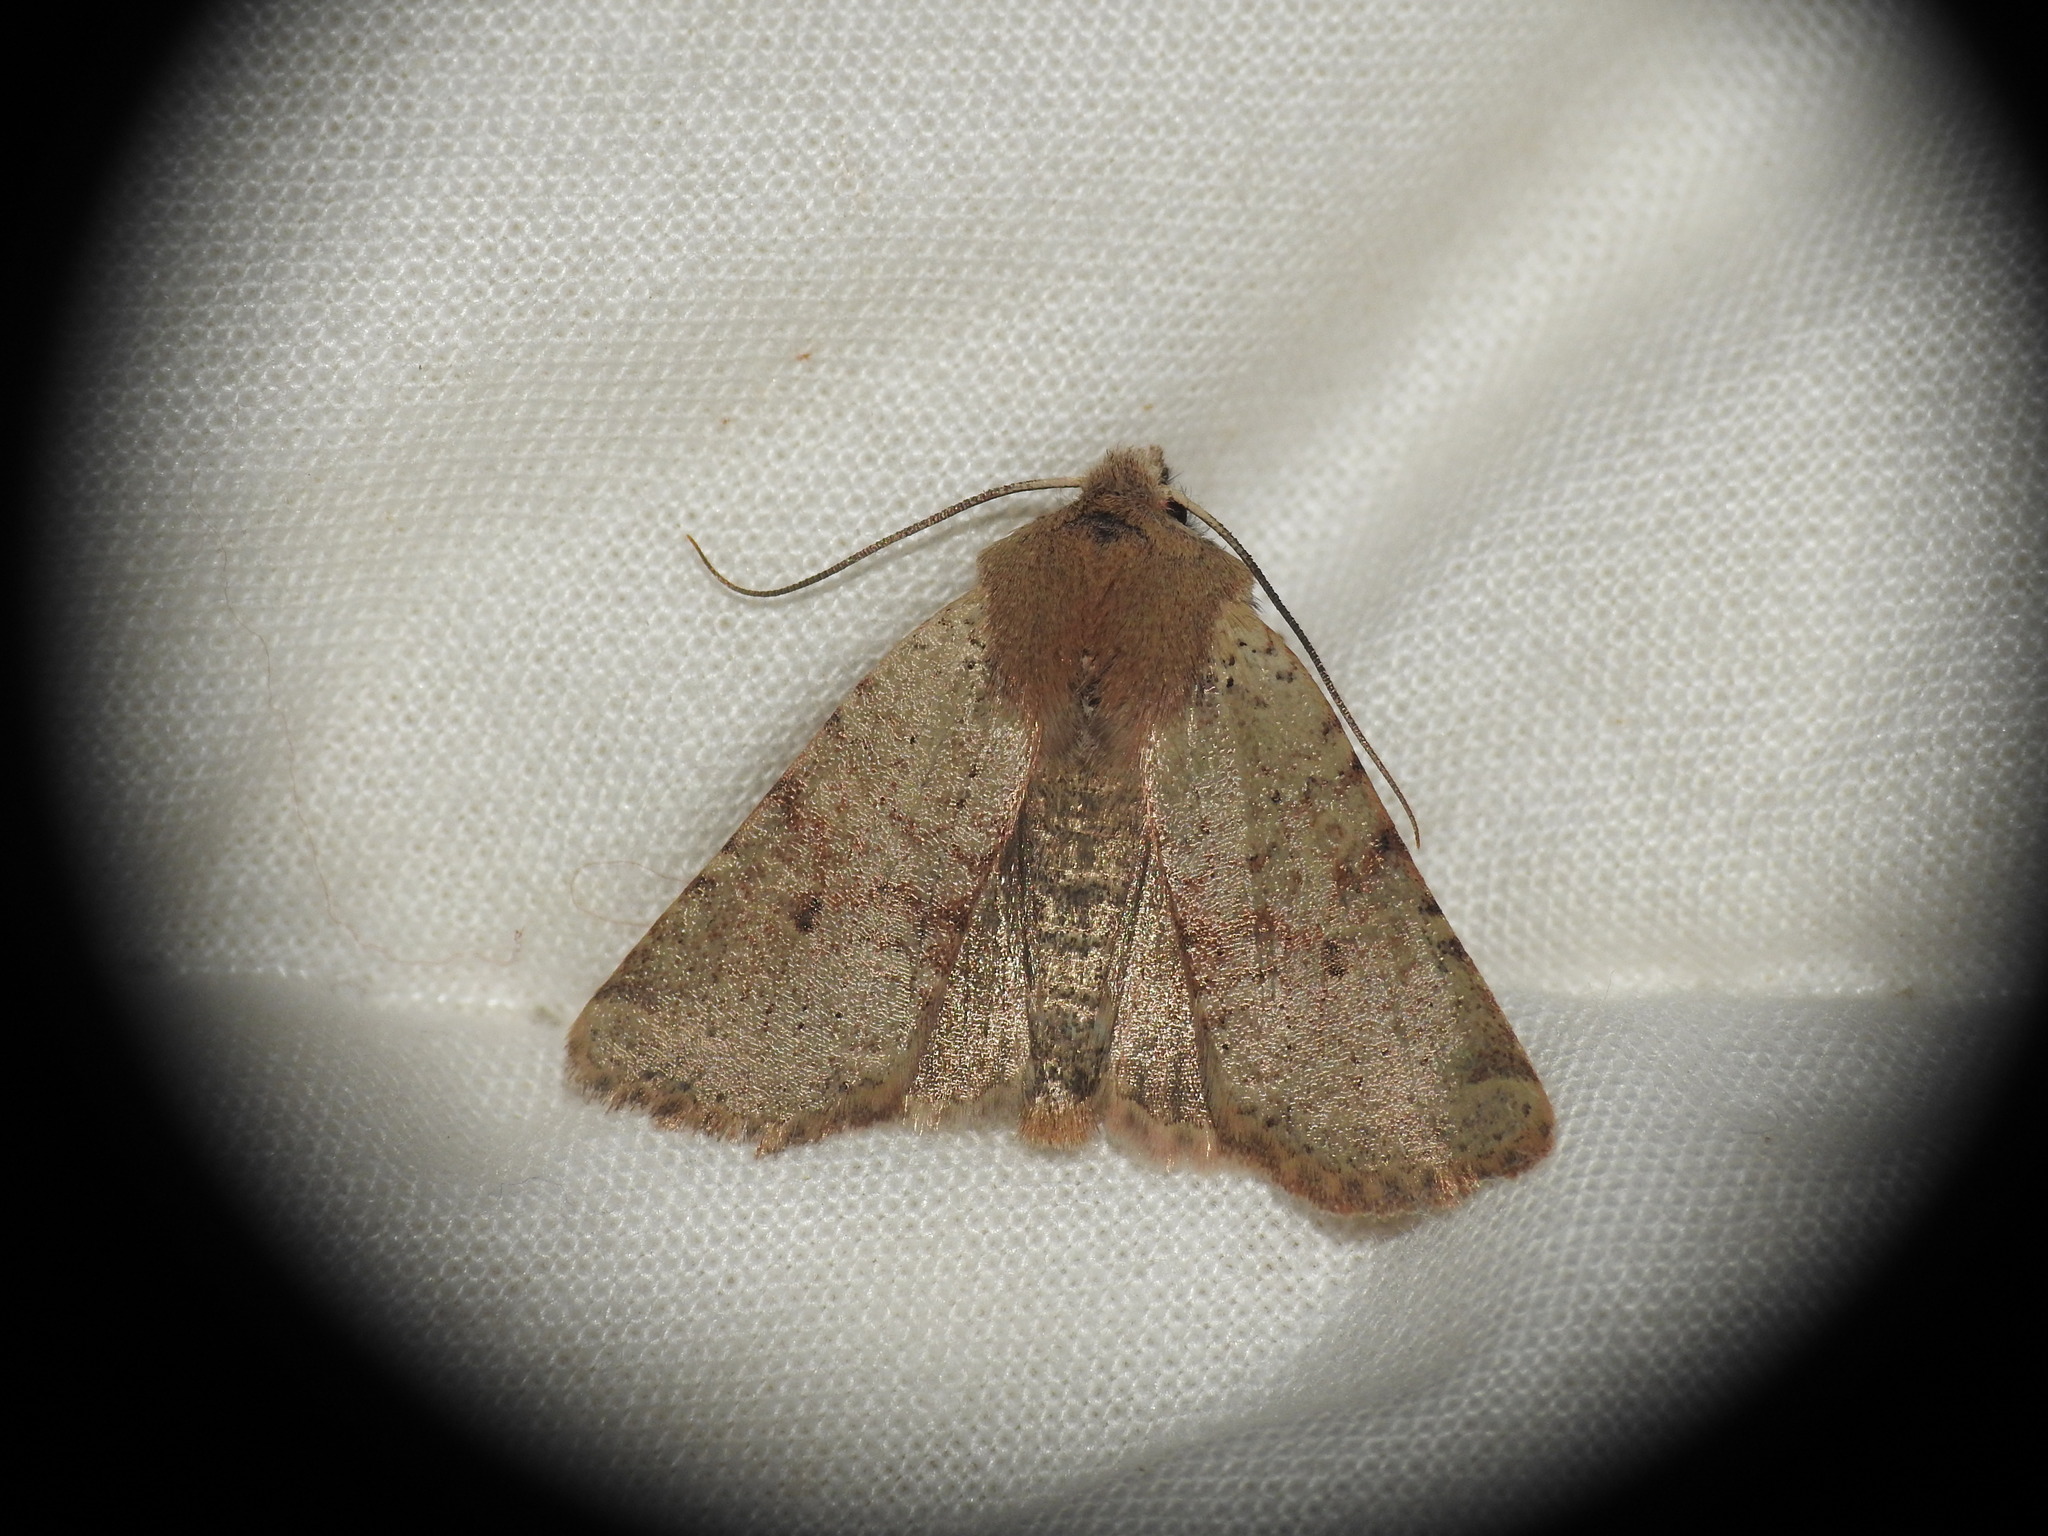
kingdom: Animalia
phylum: Arthropoda
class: Insecta
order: Lepidoptera
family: Noctuidae
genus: Agrochola
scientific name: Agrochola ruticilla
